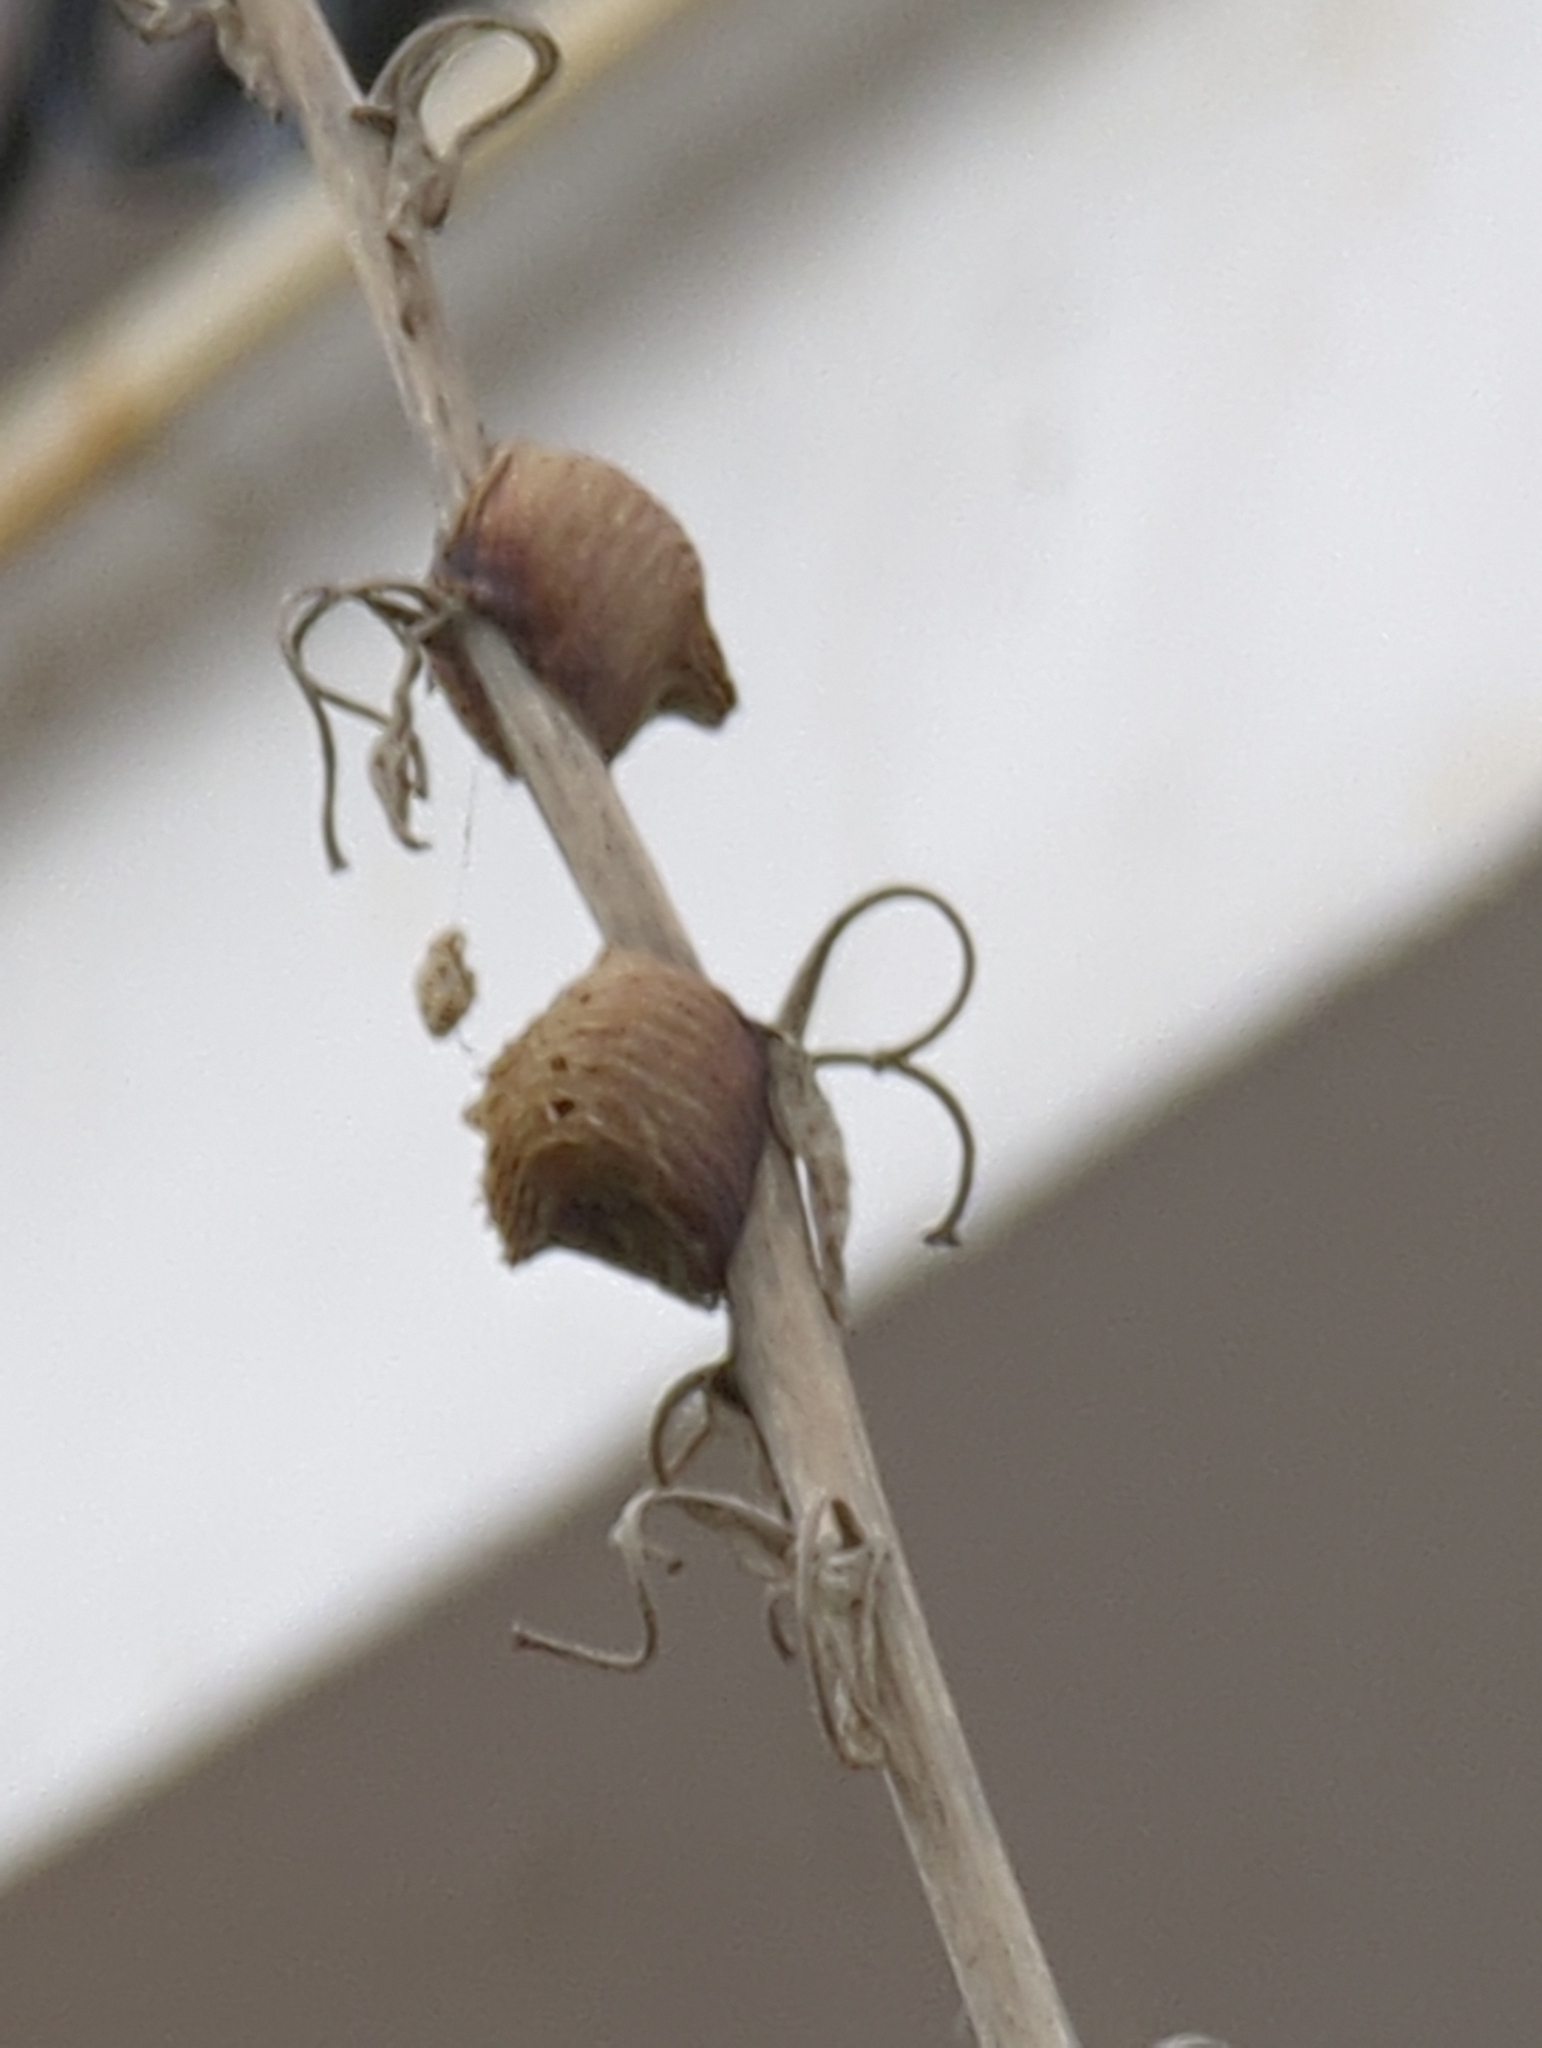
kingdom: Animalia
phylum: Arthropoda
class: Insecta
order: Mantodea
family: Mantidae
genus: Hierodula
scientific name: Hierodula transcaucasica
